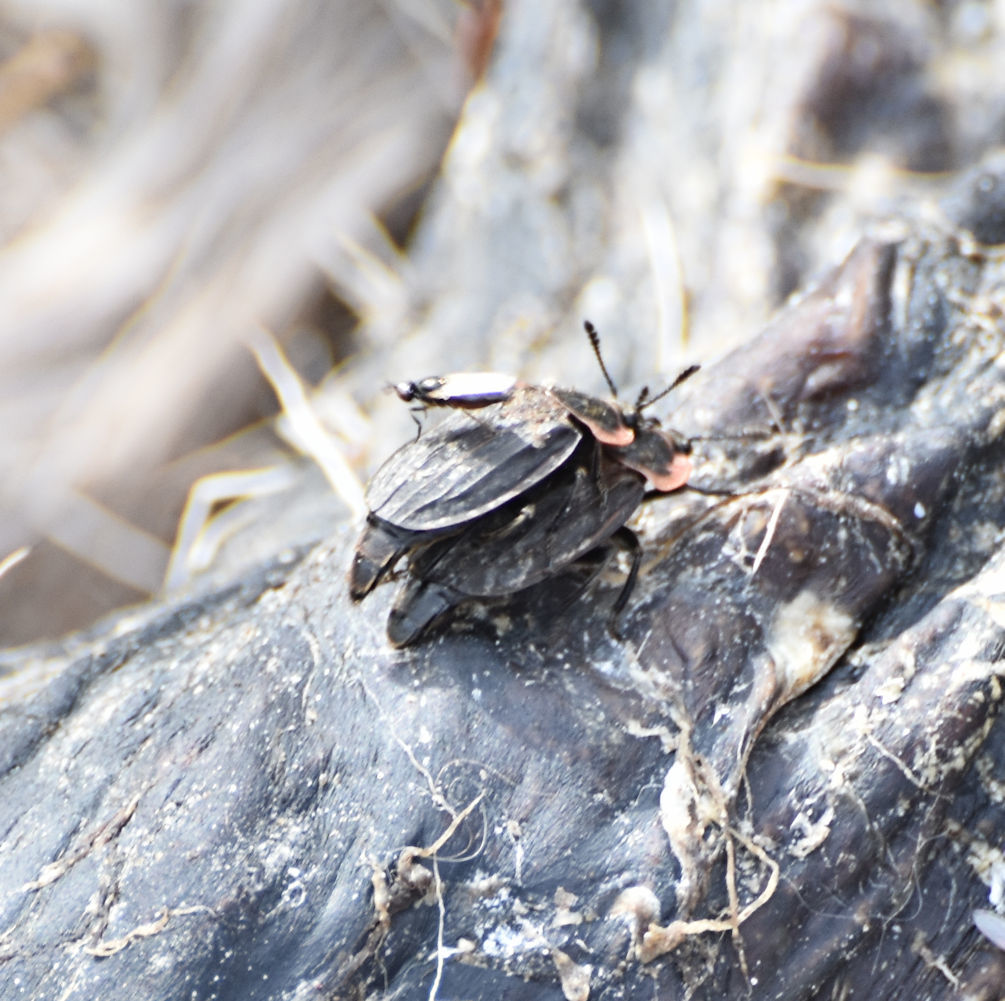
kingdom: Animalia
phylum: Arthropoda
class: Insecta
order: Coleoptera
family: Staphylinidae
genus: Oiceoptoma
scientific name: Oiceoptoma noveboracense
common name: Margined carrion beetle
